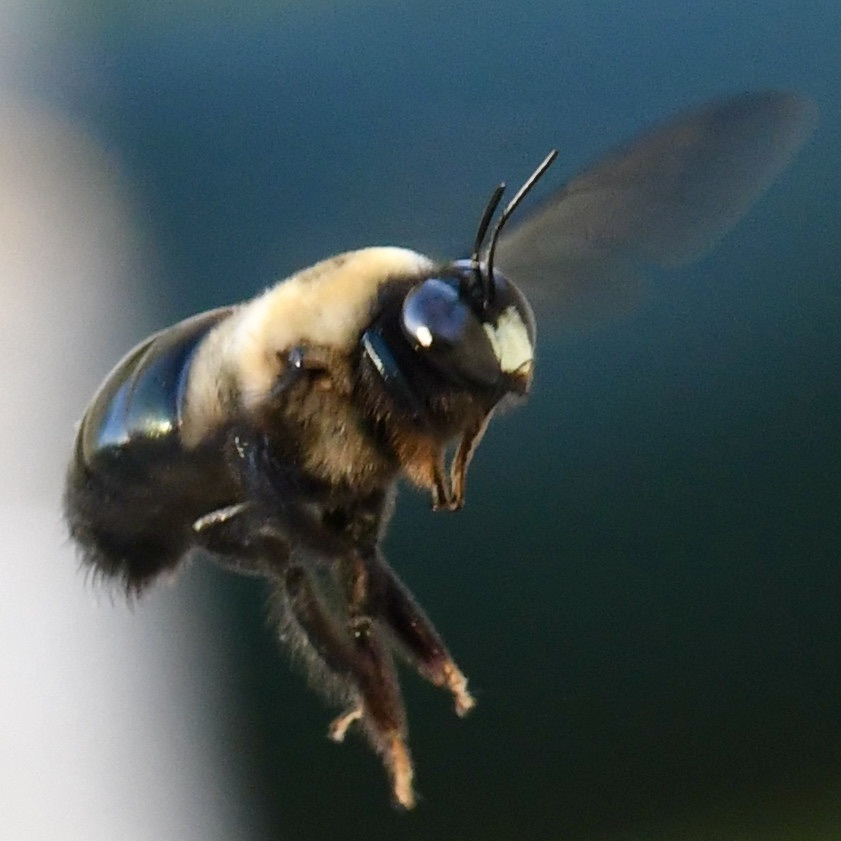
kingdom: Animalia
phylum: Arthropoda
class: Insecta
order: Hymenoptera
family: Apidae
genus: Xylocopa
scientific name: Xylocopa virginica
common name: Carpenter bee
